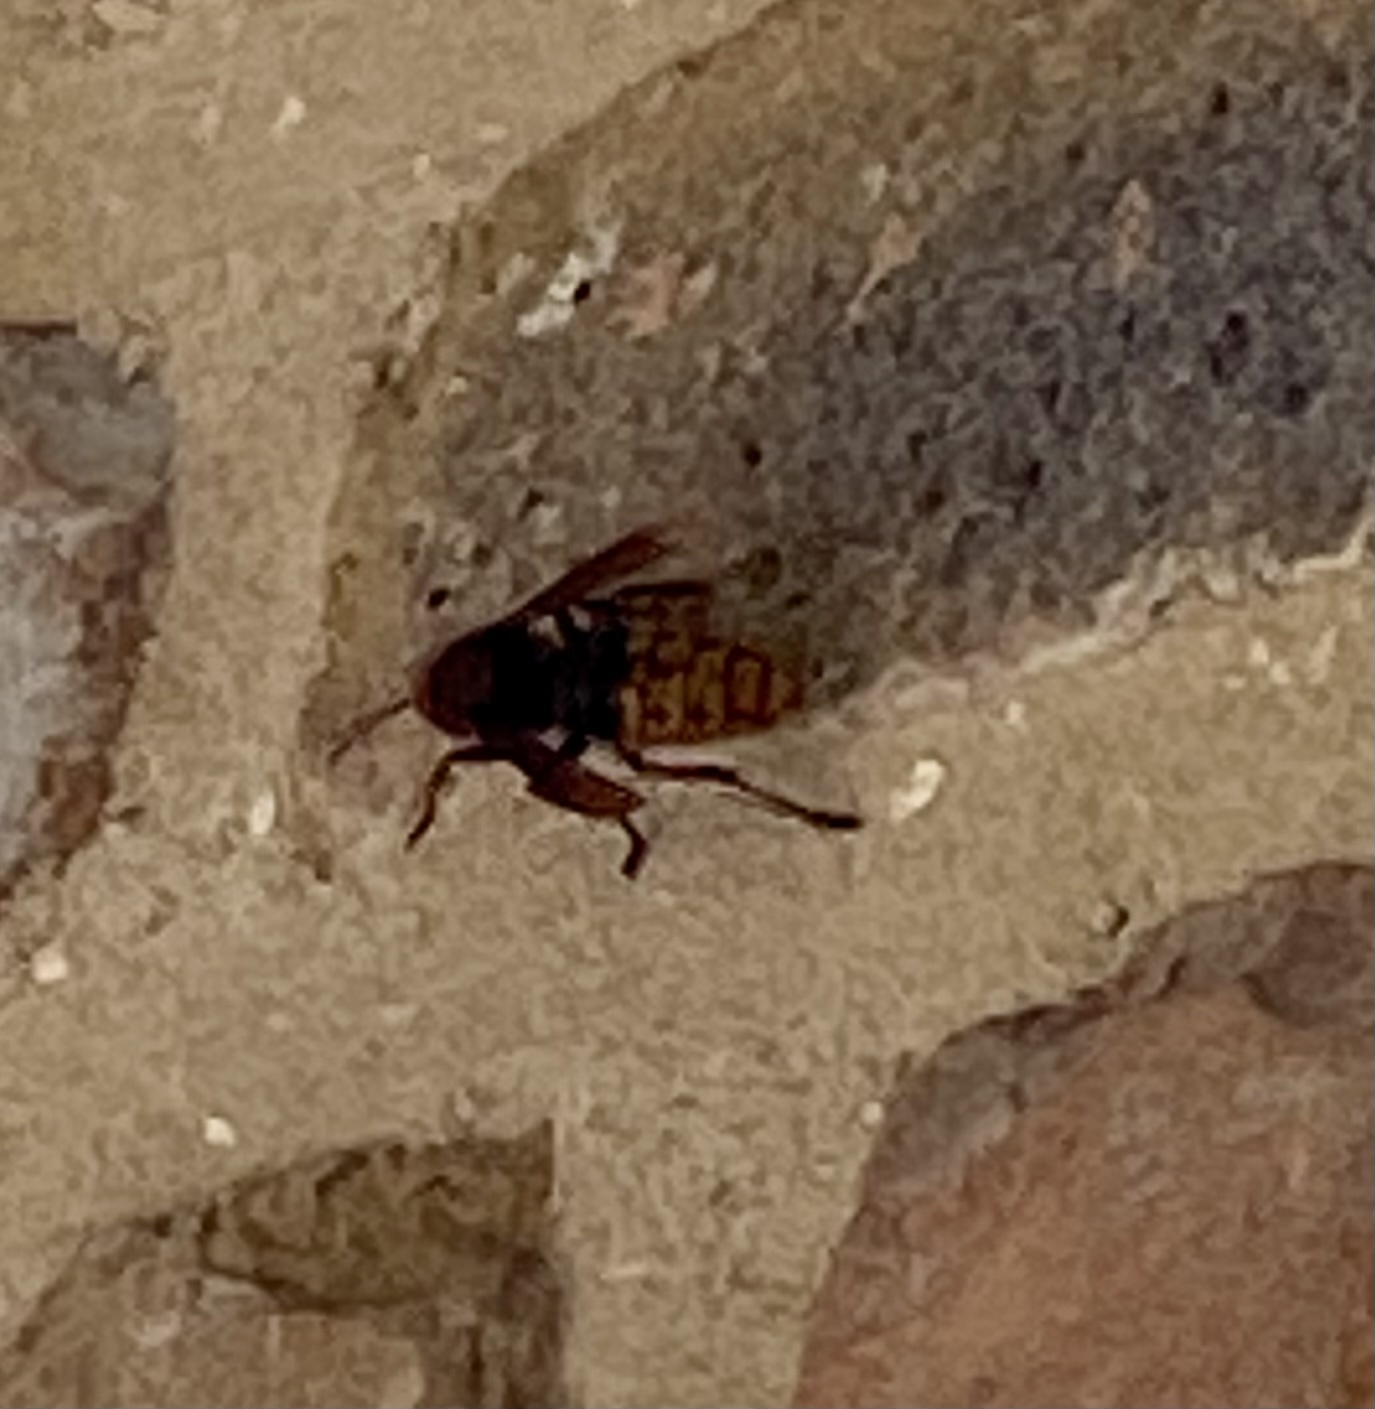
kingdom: Animalia
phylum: Arthropoda
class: Insecta
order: Hymenoptera
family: Vespidae
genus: Vespa
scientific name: Vespa crabro
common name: Hornet
